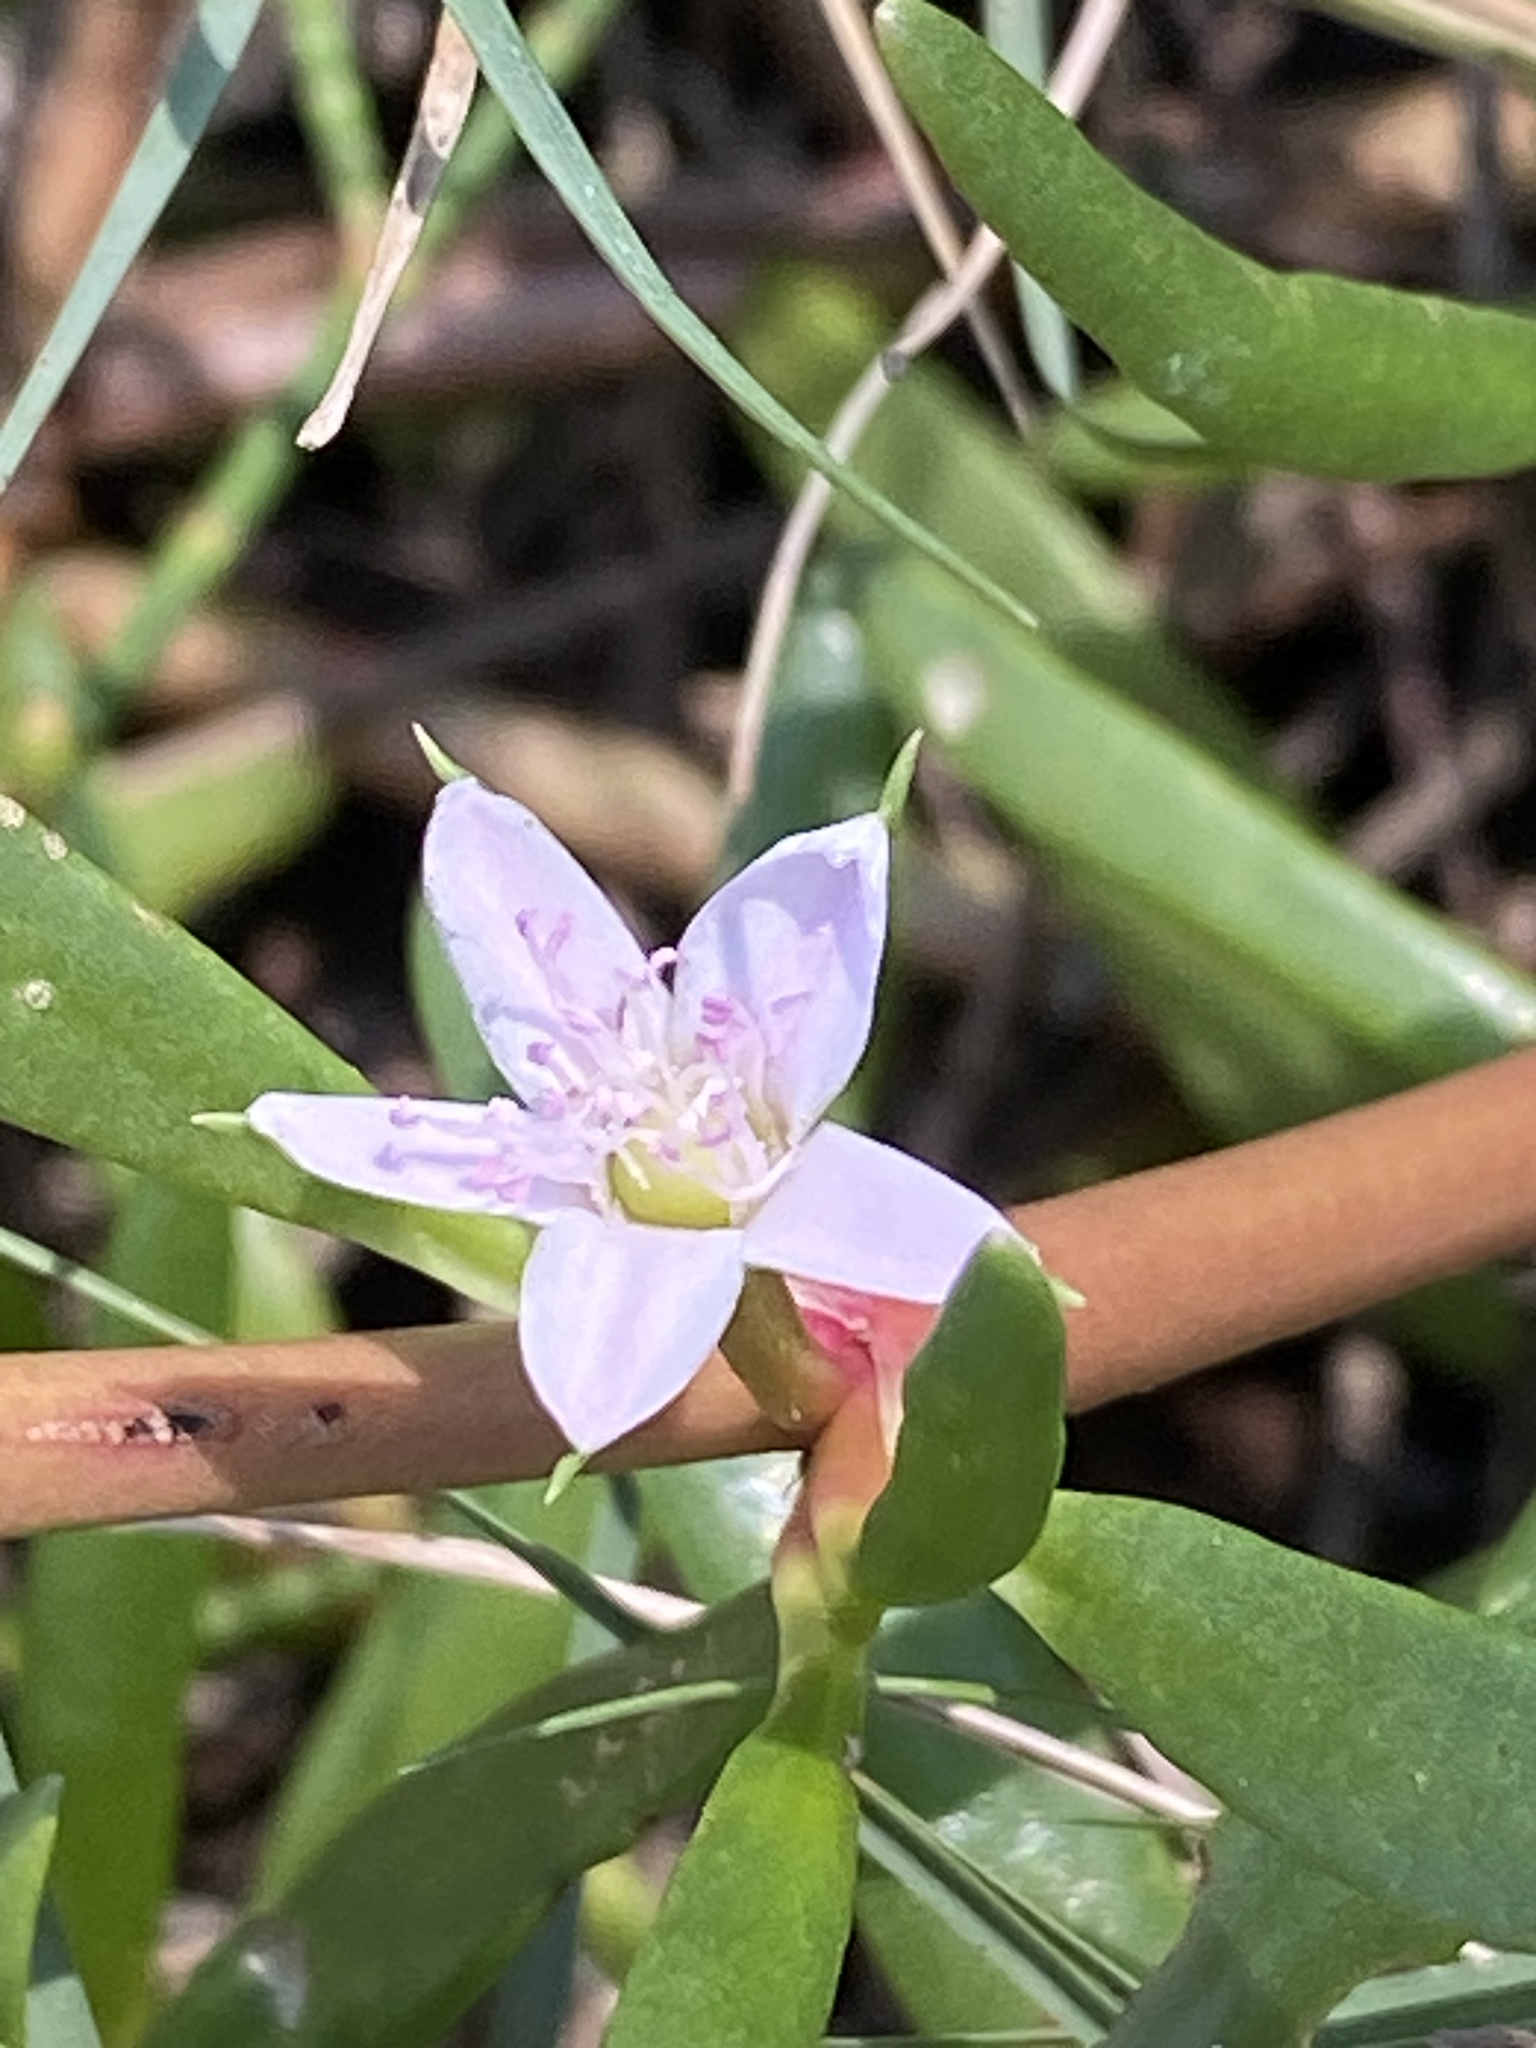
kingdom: Plantae
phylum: Tracheophyta
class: Magnoliopsida
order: Caryophyllales
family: Aizoaceae
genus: Sesuvium
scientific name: Sesuvium portulacastrum
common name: Sea-purslane
